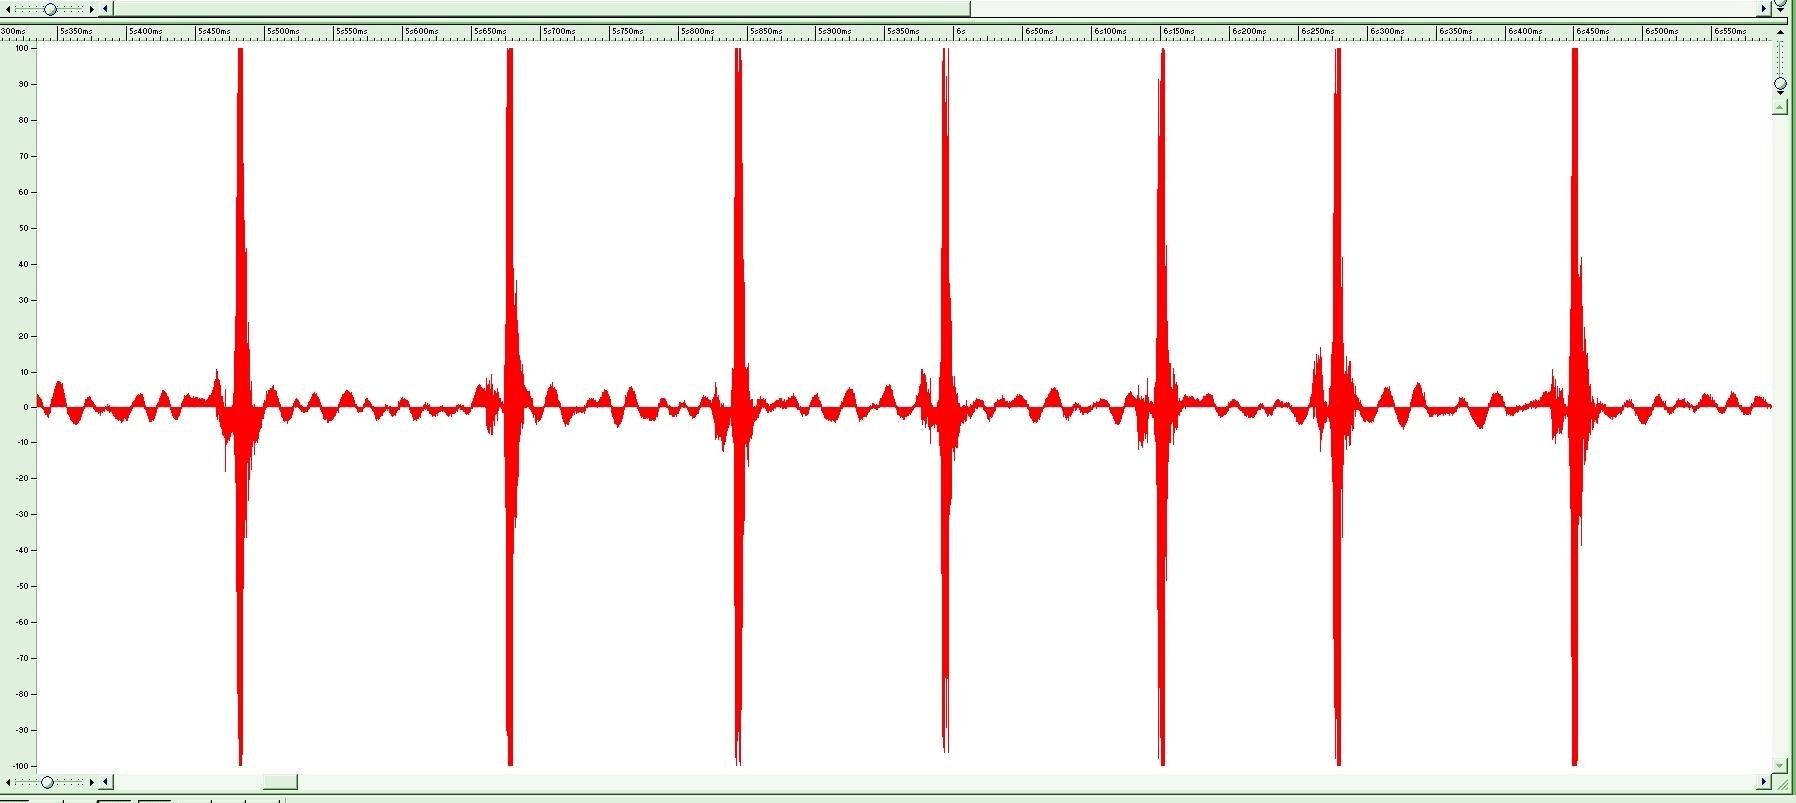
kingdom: Animalia
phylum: Arthropoda
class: Insecta
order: Orthoptera
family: Tettigoniidae
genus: Decticus
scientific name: Decticus albifrons
